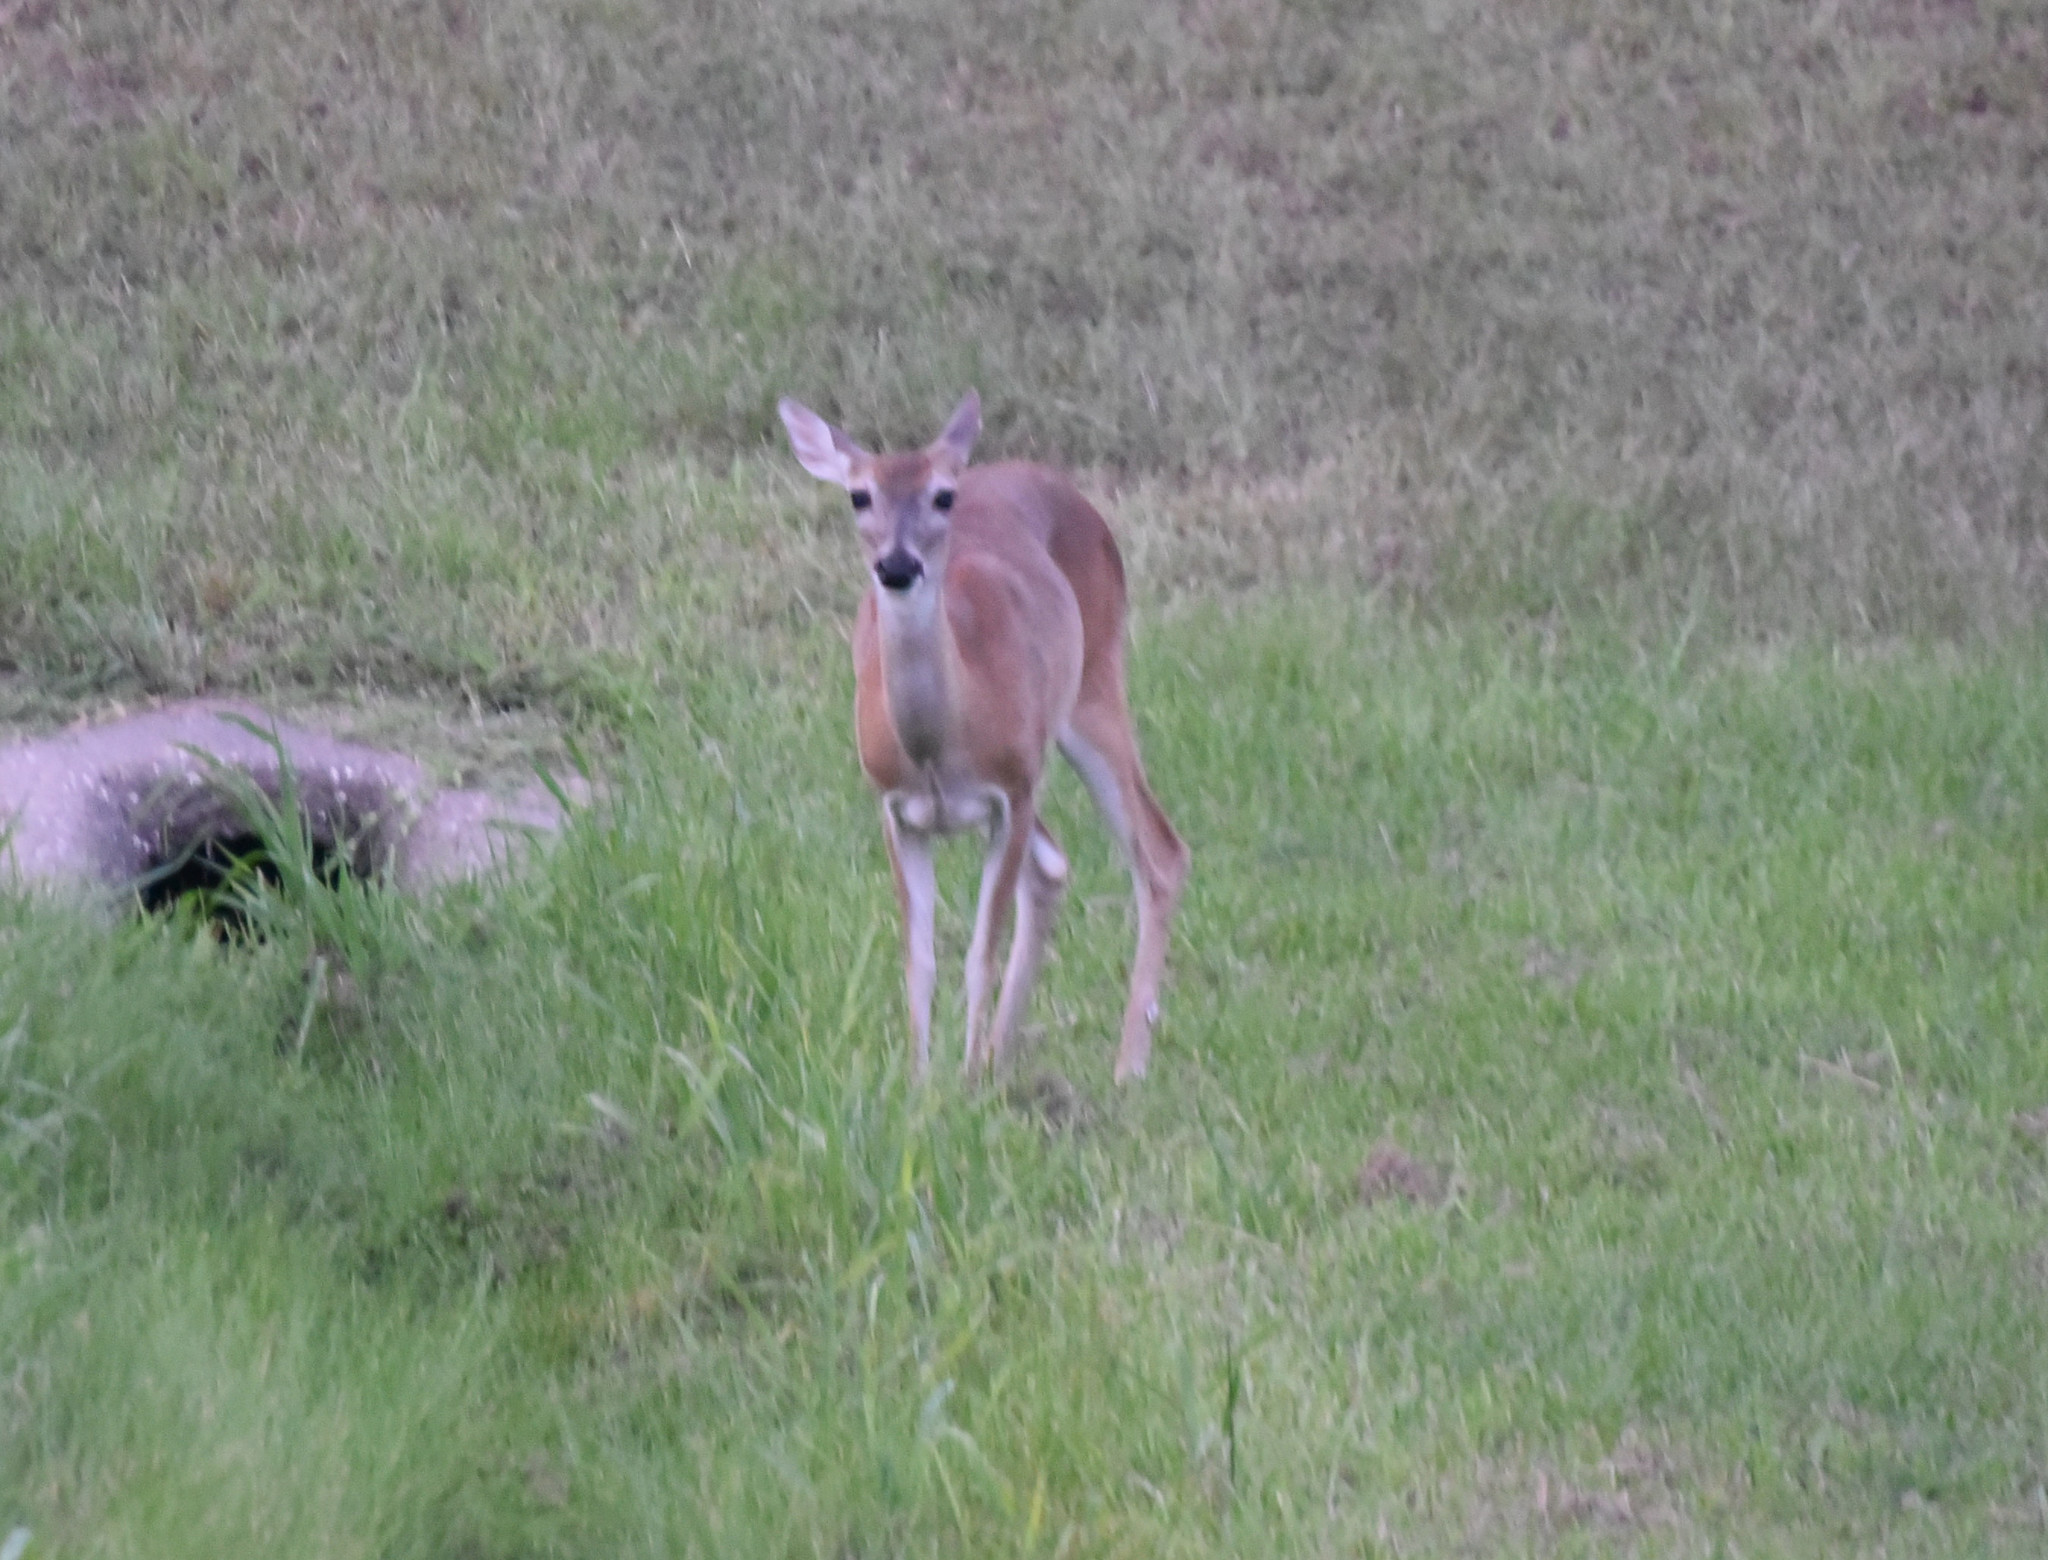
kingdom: Animalia
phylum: Chordata
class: Mammalia
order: Artiodactyla
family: Cervidae
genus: Odocoileus
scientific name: Odocoileus virginianus
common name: White-tailed deer
